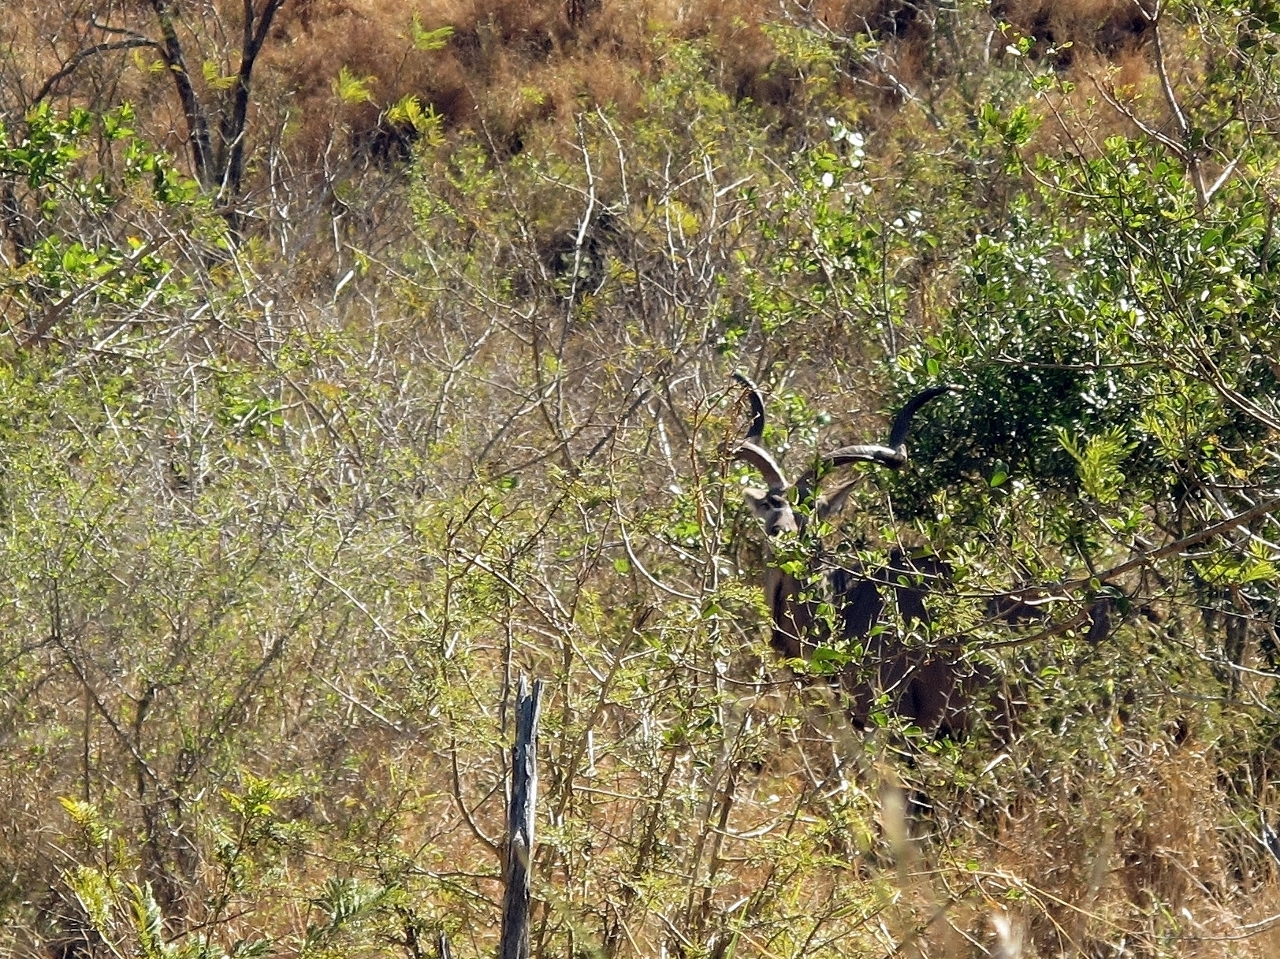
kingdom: Animalia
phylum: Chordata
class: Mammalia
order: Artiodactyla
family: Bovidae
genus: Tragelaphus
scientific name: Tragelaphus strepsiceros
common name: Greater kudu
